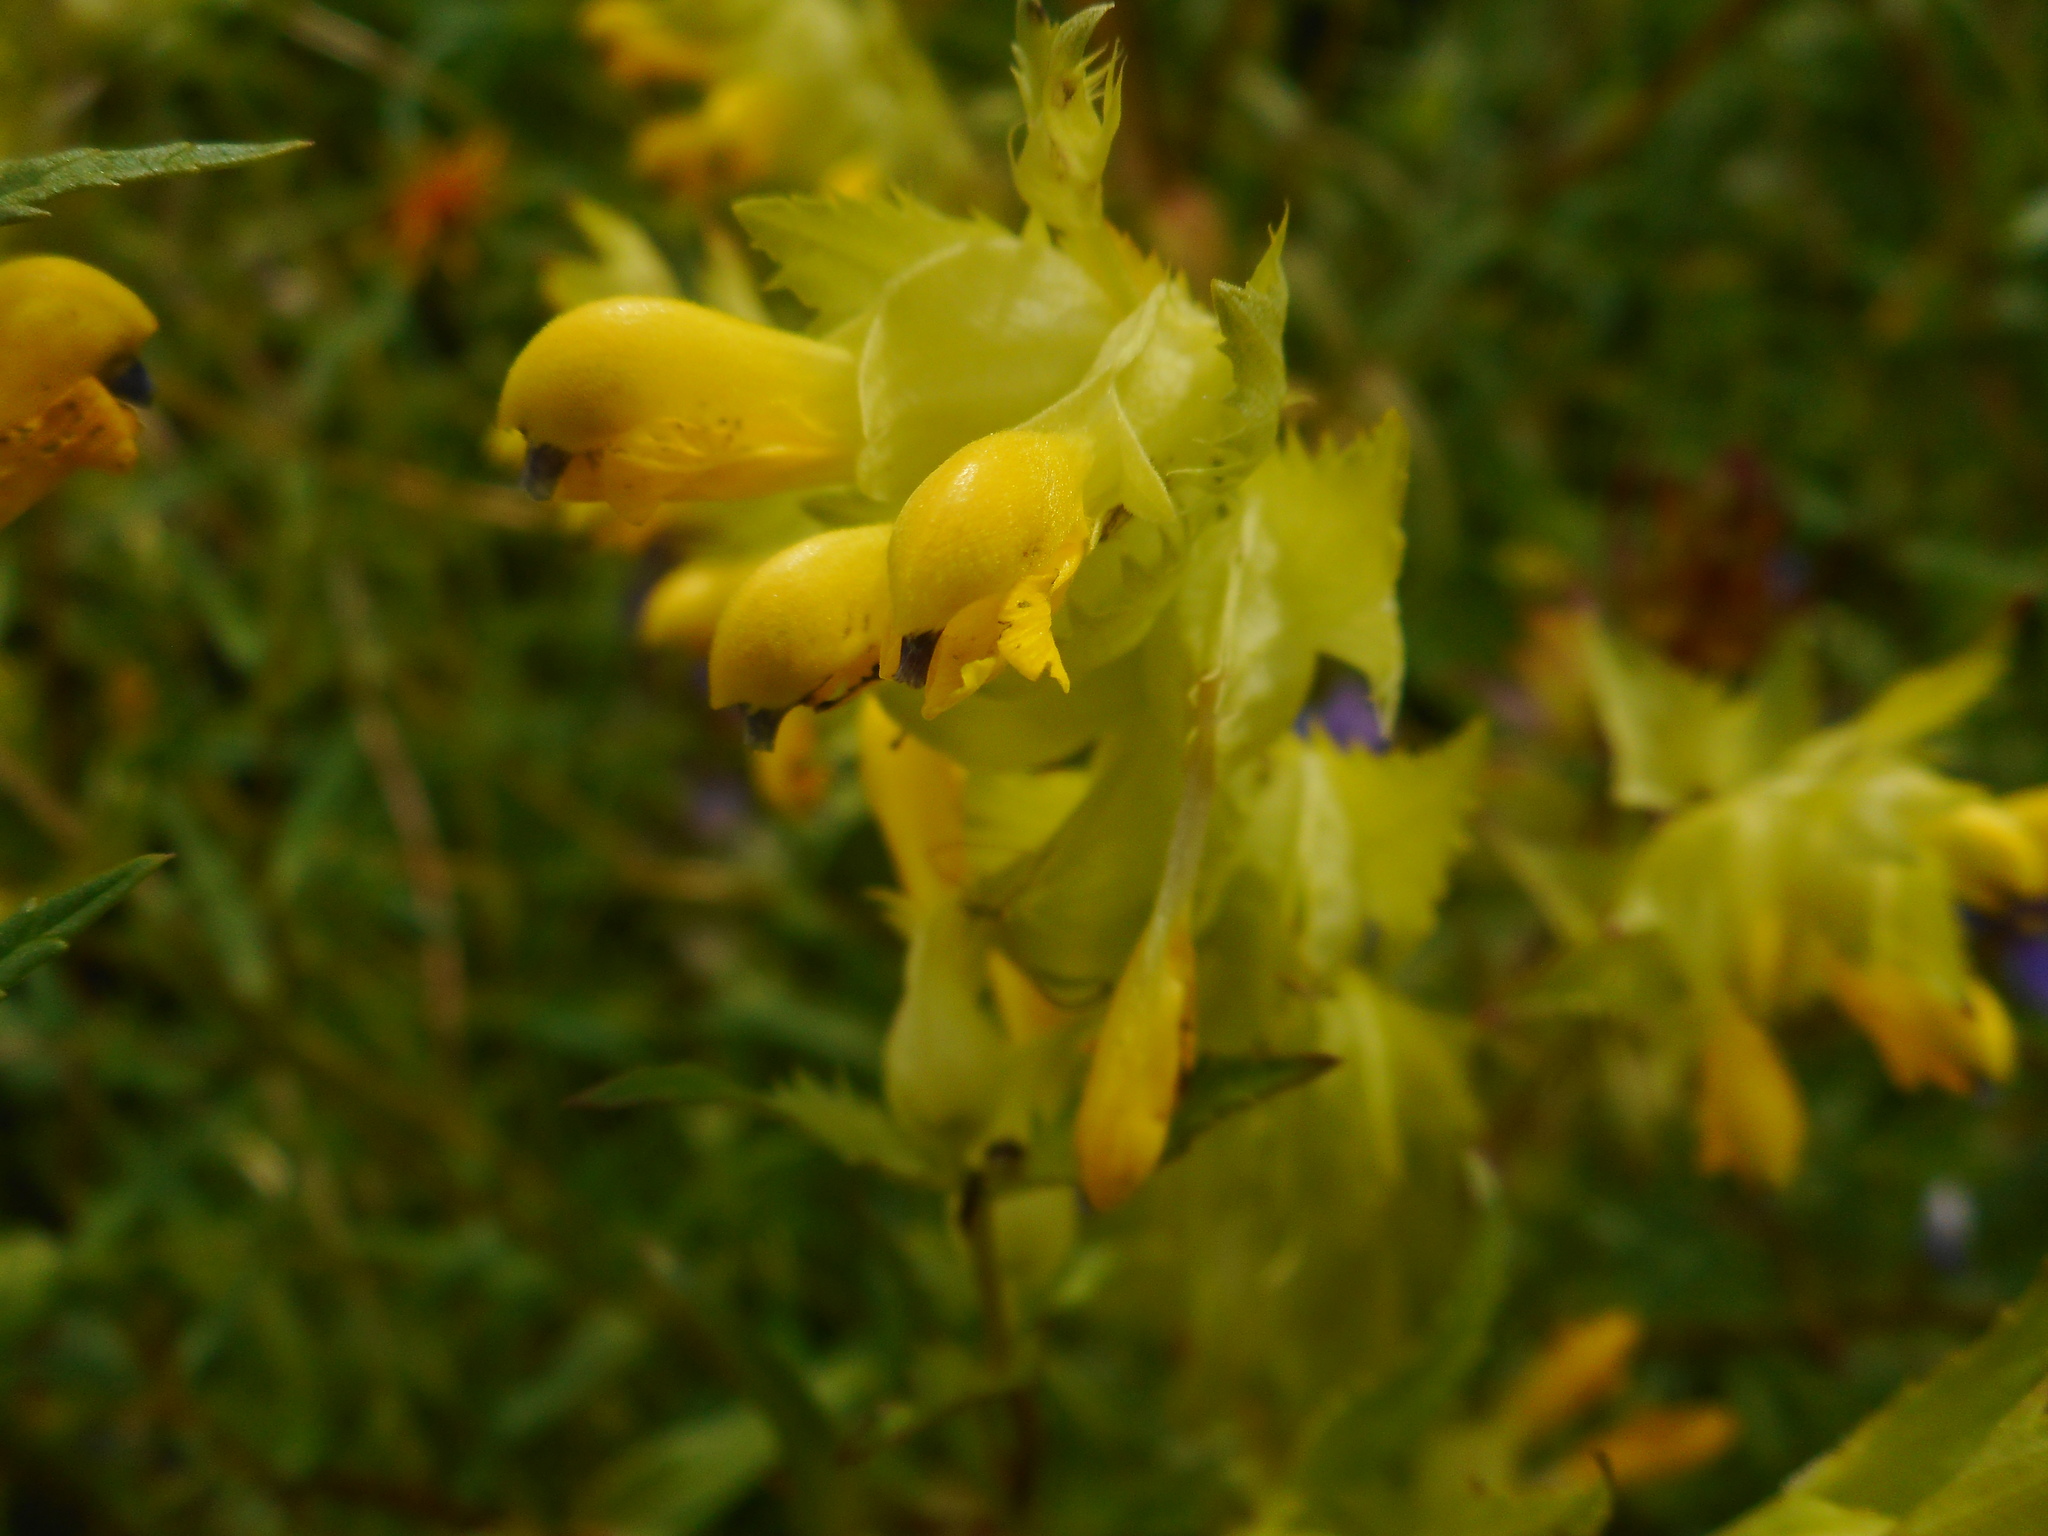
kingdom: Plantae
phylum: Tracheophyta
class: Magnoliopsida
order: Lamiales
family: Orobanchaceae
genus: Rhinanthus
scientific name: Rhinanthus serotinus
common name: Late-flowering yellow rattle
